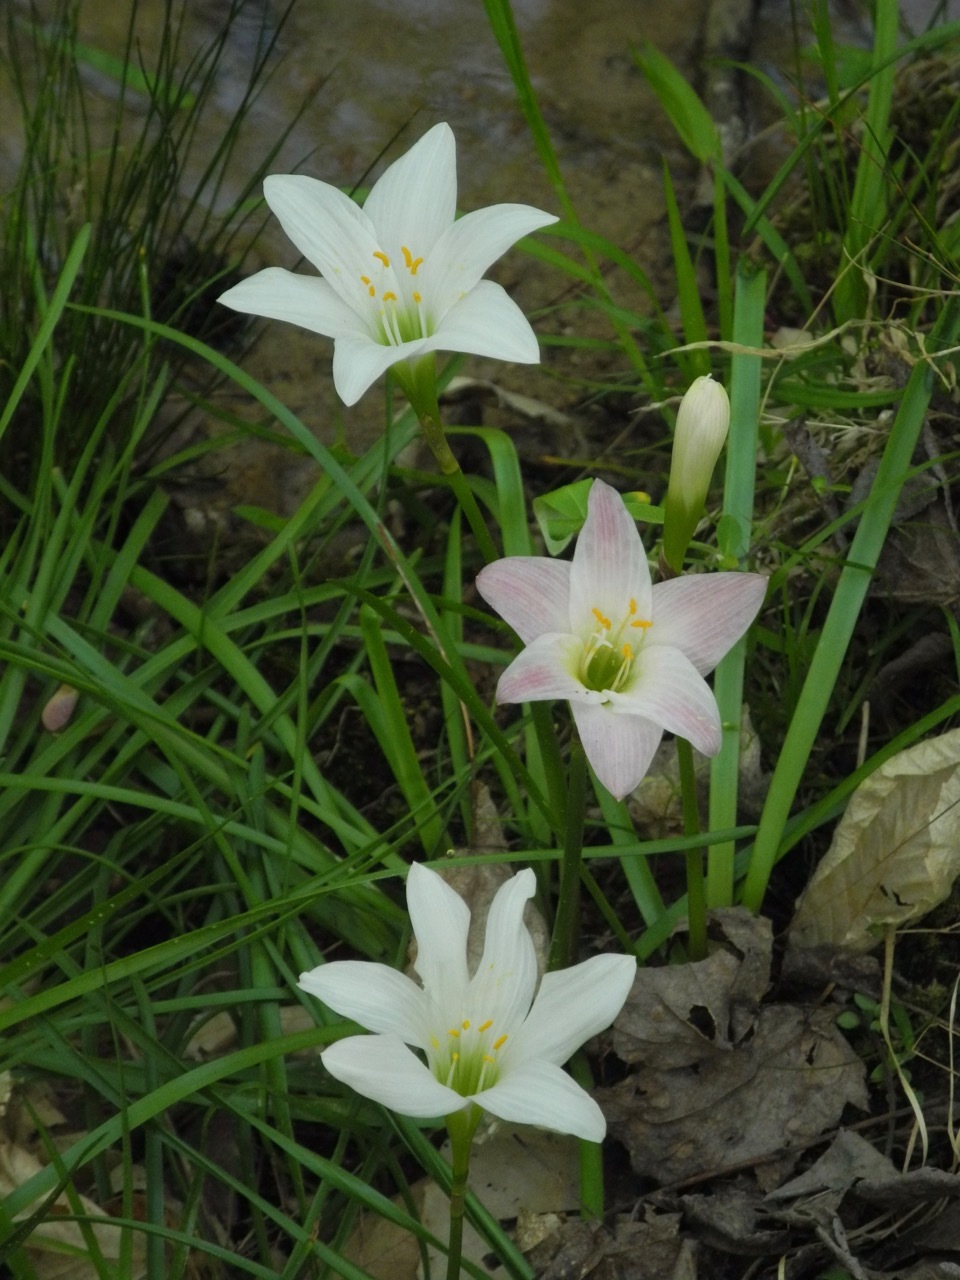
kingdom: Plantae
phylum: Tracheophyta
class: Liliopsida
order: Asparagales
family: Amaryllidaceae
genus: Zephyranthes
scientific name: Zephyranthes atamasco
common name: Atamasco lily
